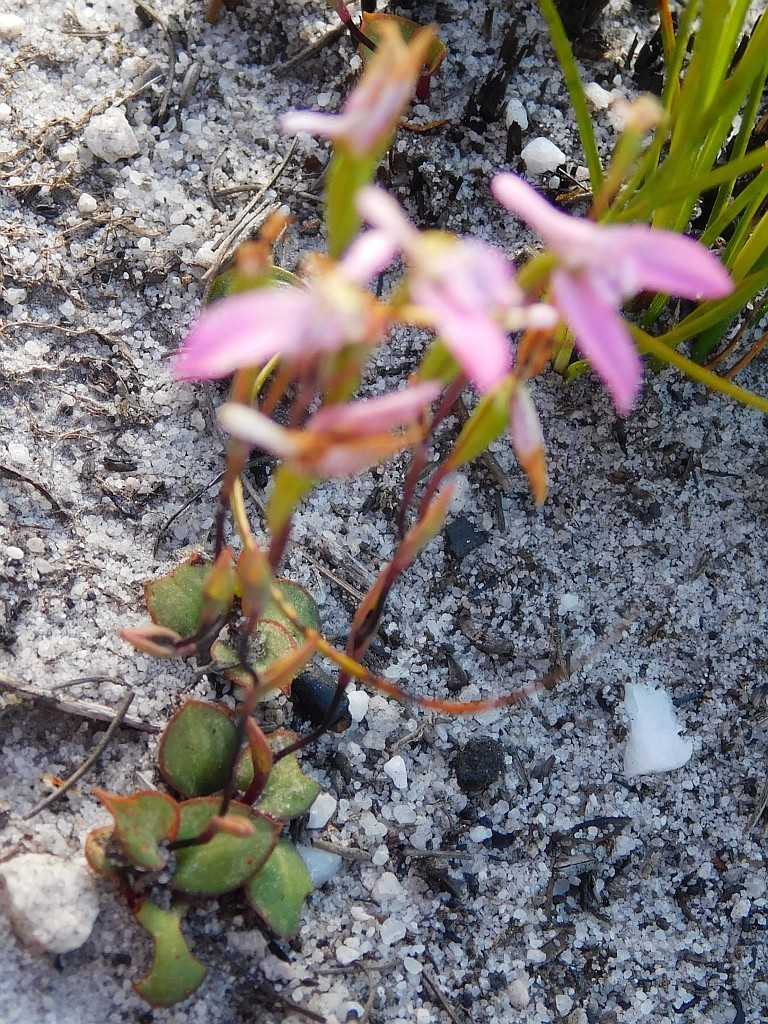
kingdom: Plantae
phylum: Tracheophyta
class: Liliopsida
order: Asparagales
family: Orchidaceae
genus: Disa
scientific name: Disa obliqua
